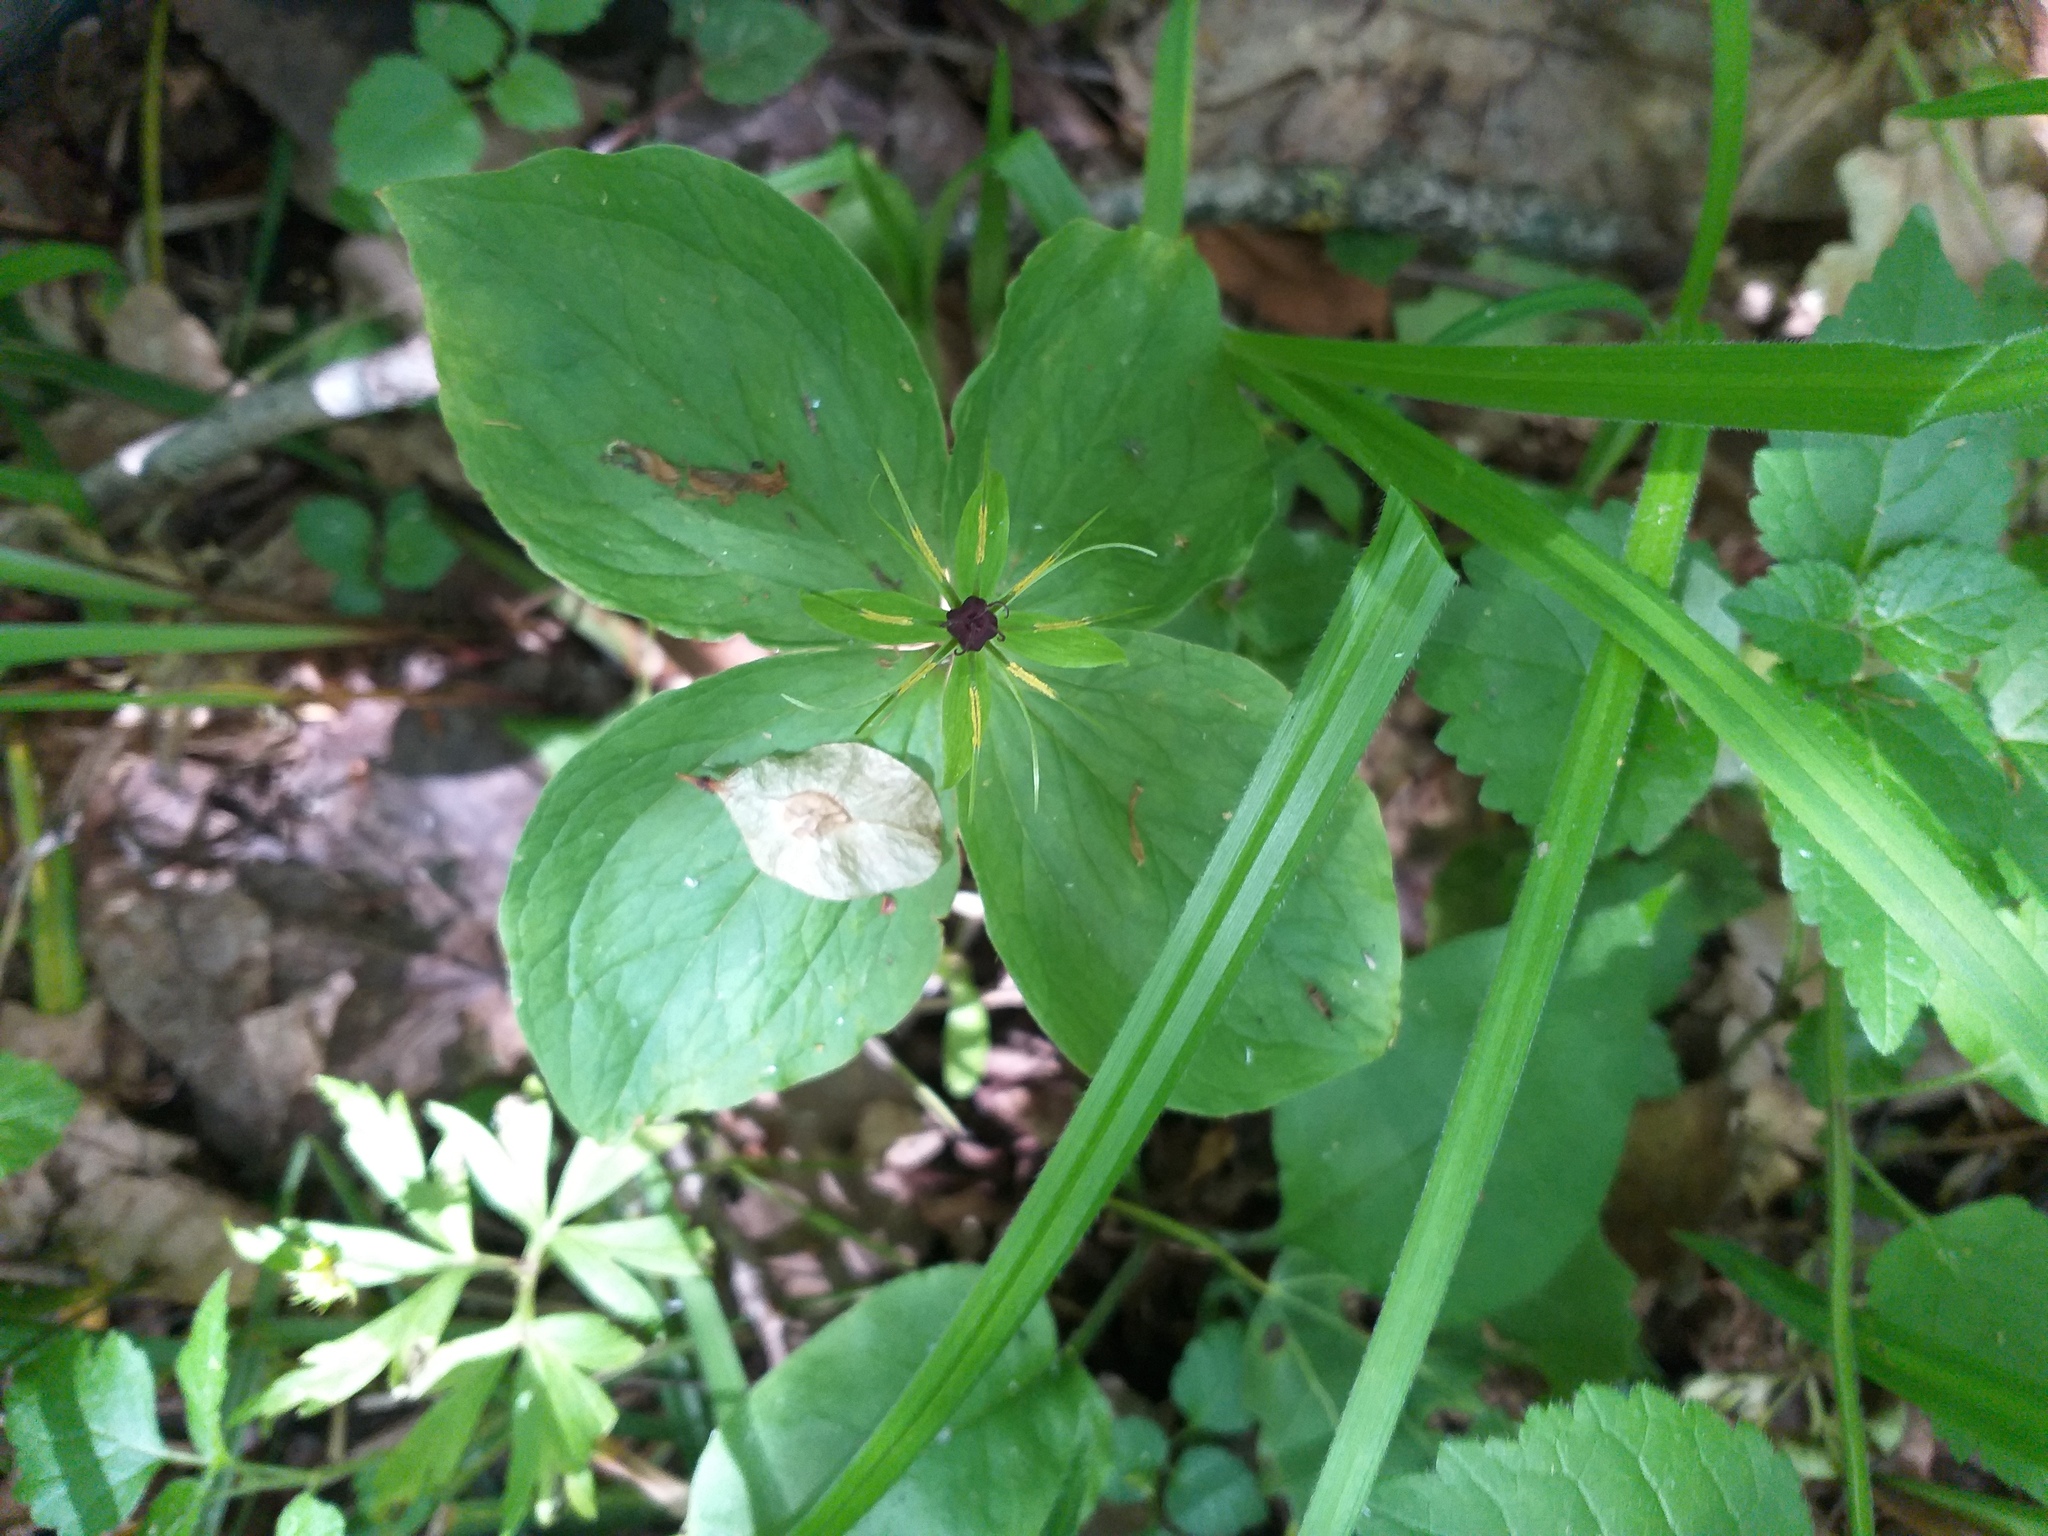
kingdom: Plantae
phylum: Tracheophyta
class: Liliopsida
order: Liliales
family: Melanthiaceae
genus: Paris
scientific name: Paris quadrifolia
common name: Herb-paris
